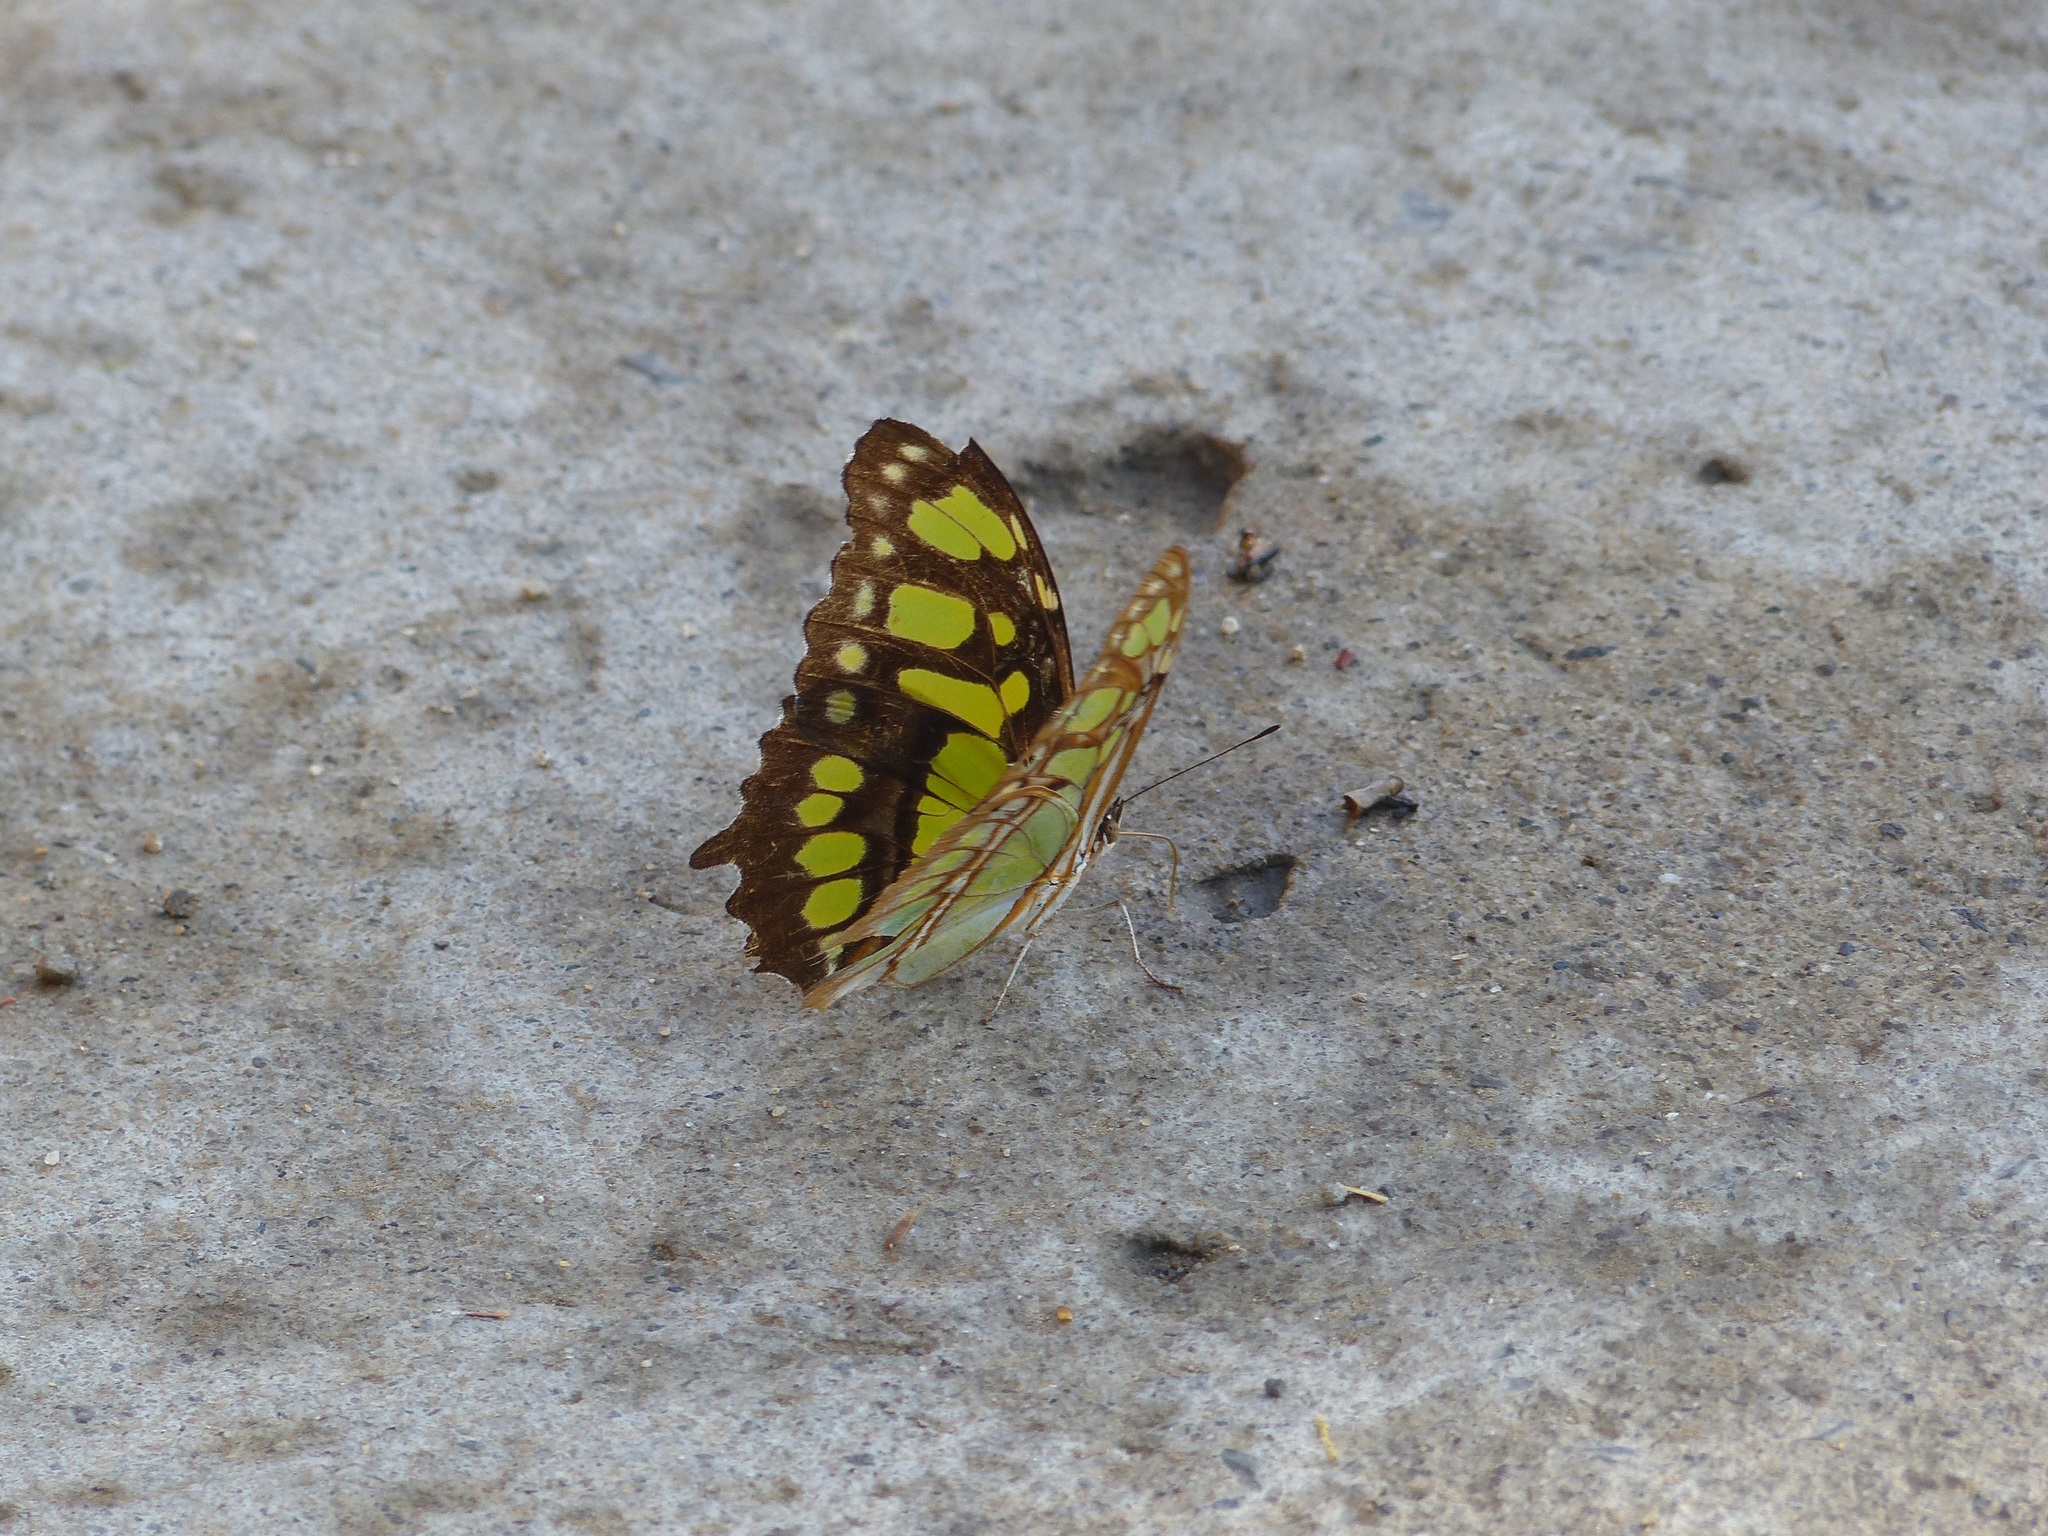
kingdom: Animalia
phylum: Arthropoda
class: Insecta
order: Lepidoptera
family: Nymphalidae
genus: Siproeta
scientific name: Siproeta stelenes
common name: Malachite
